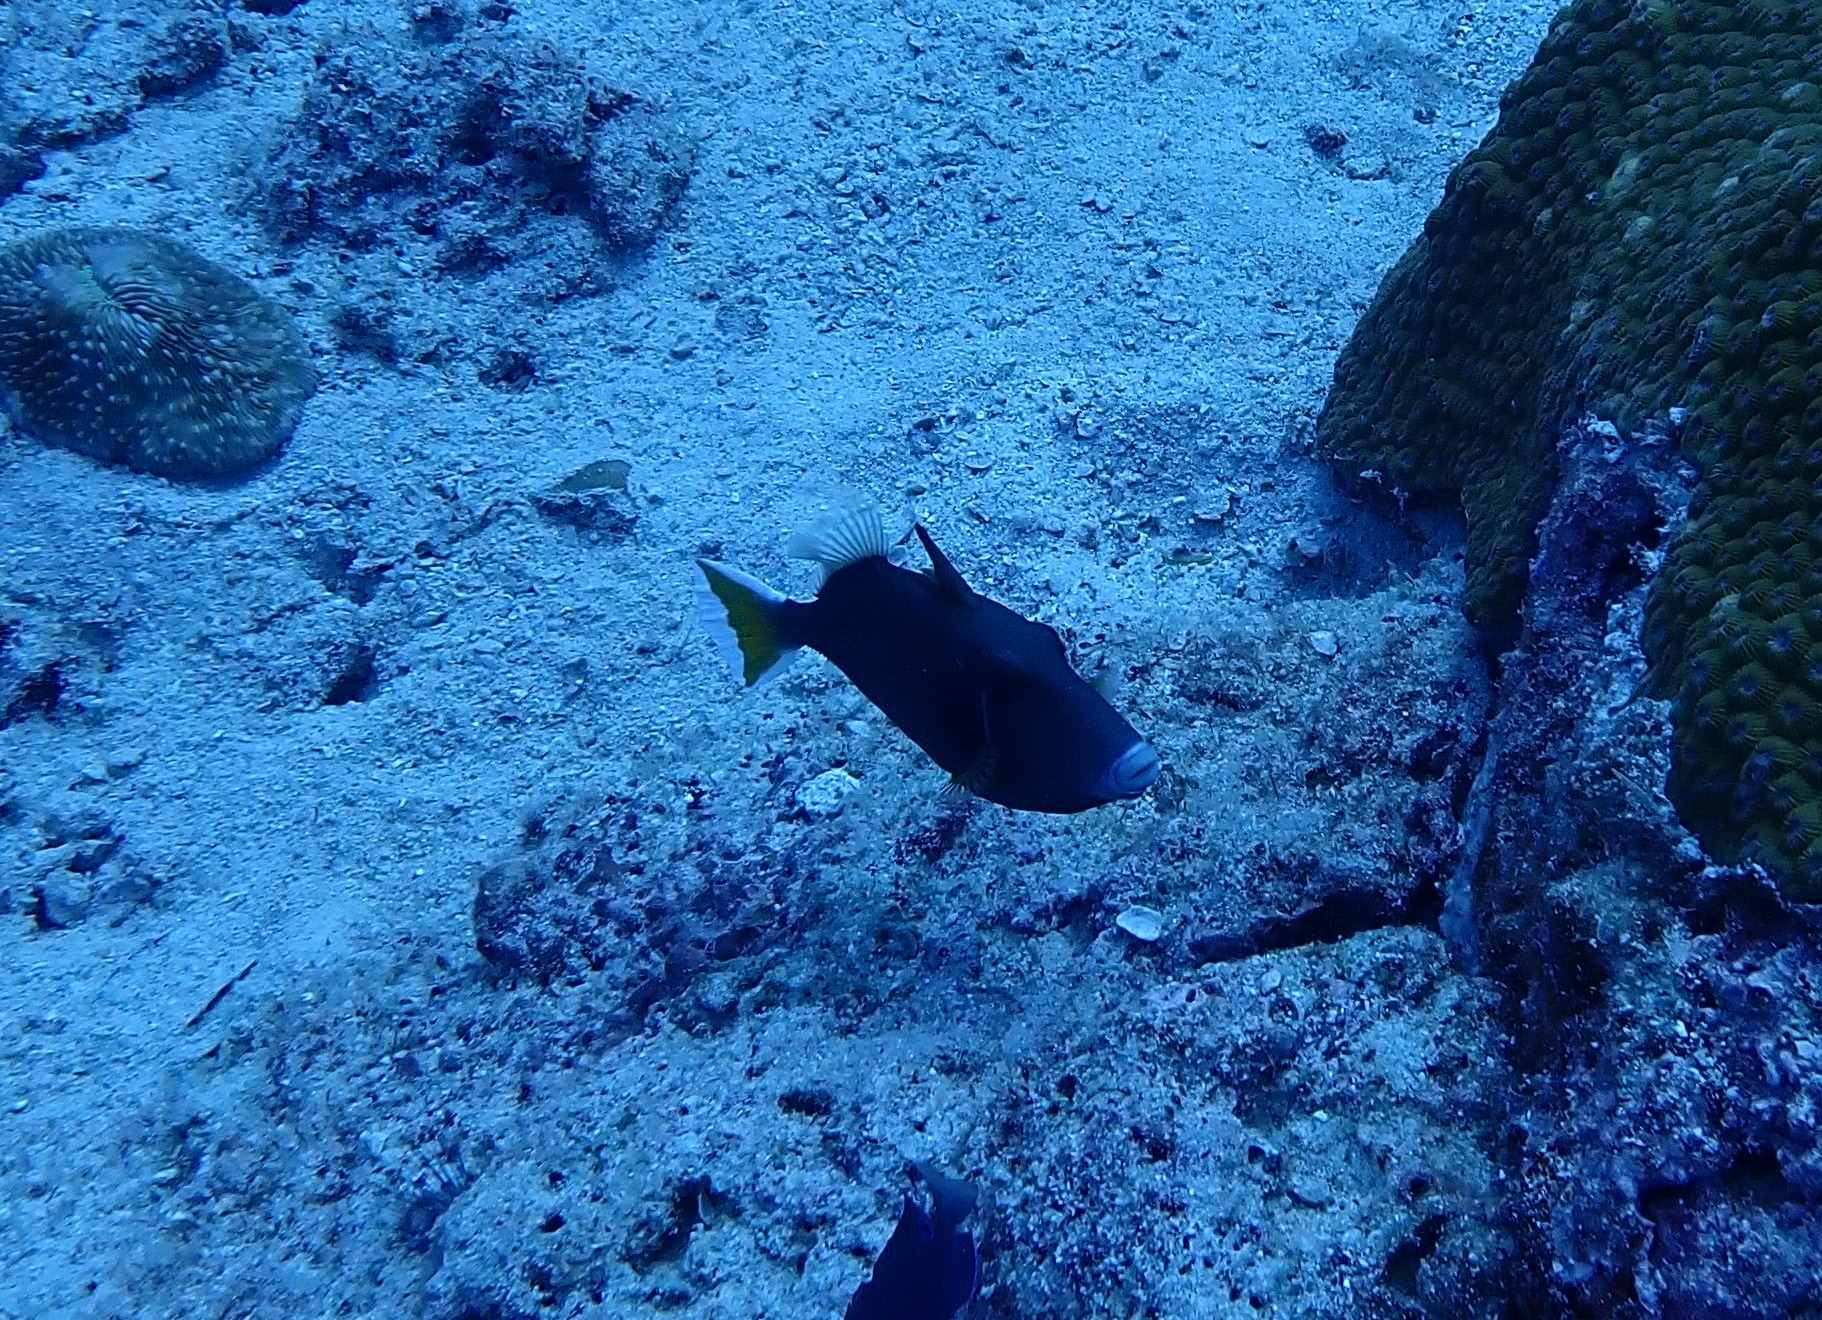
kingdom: Animalia
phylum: Chordata
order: Tetraodontiformes
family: Balistidae
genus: Sufflamen
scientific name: Sufflamen chrysopterum
